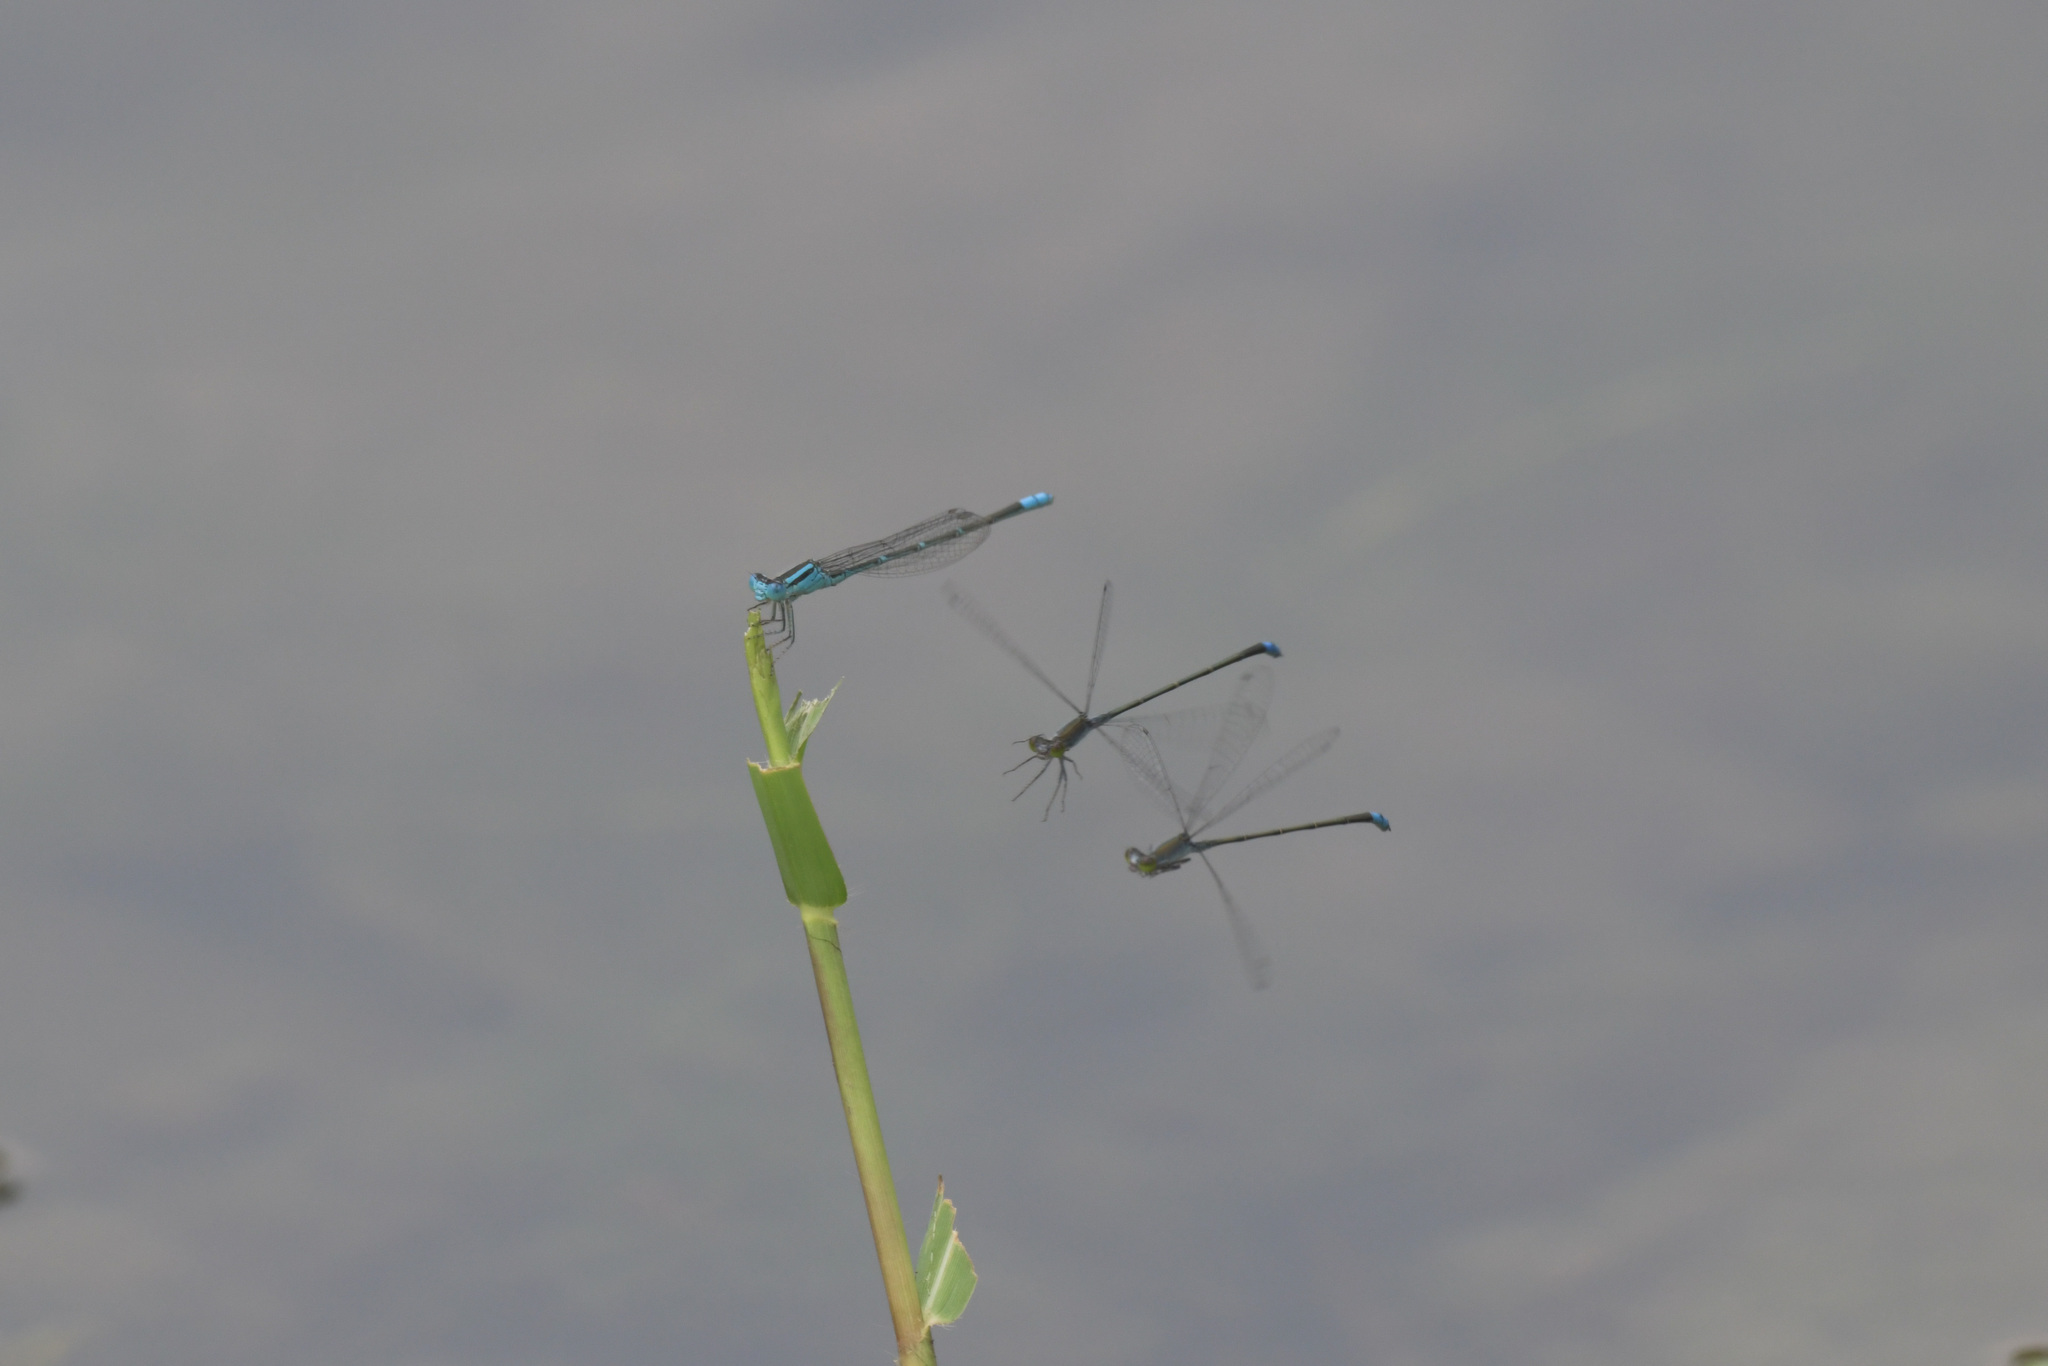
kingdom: Animalia
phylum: Arthropoda
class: Insecta
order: Odonata
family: Coenagrionidae
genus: Paracercion
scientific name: Paracercion melanotum
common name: Eastern lilysquatter
